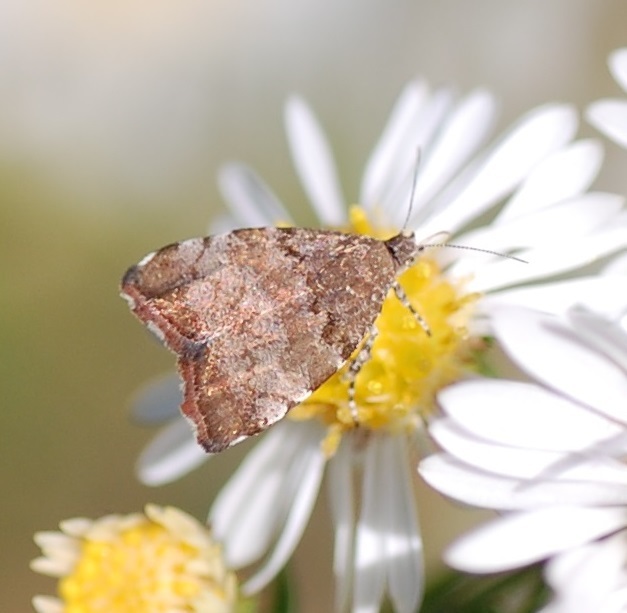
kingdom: Animalia
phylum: Arthropoda
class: Insecta
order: Lepidoptera
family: Choreutidae
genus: Choreutis
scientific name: Choreutis pariana
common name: Apple leaf skeletoniser
